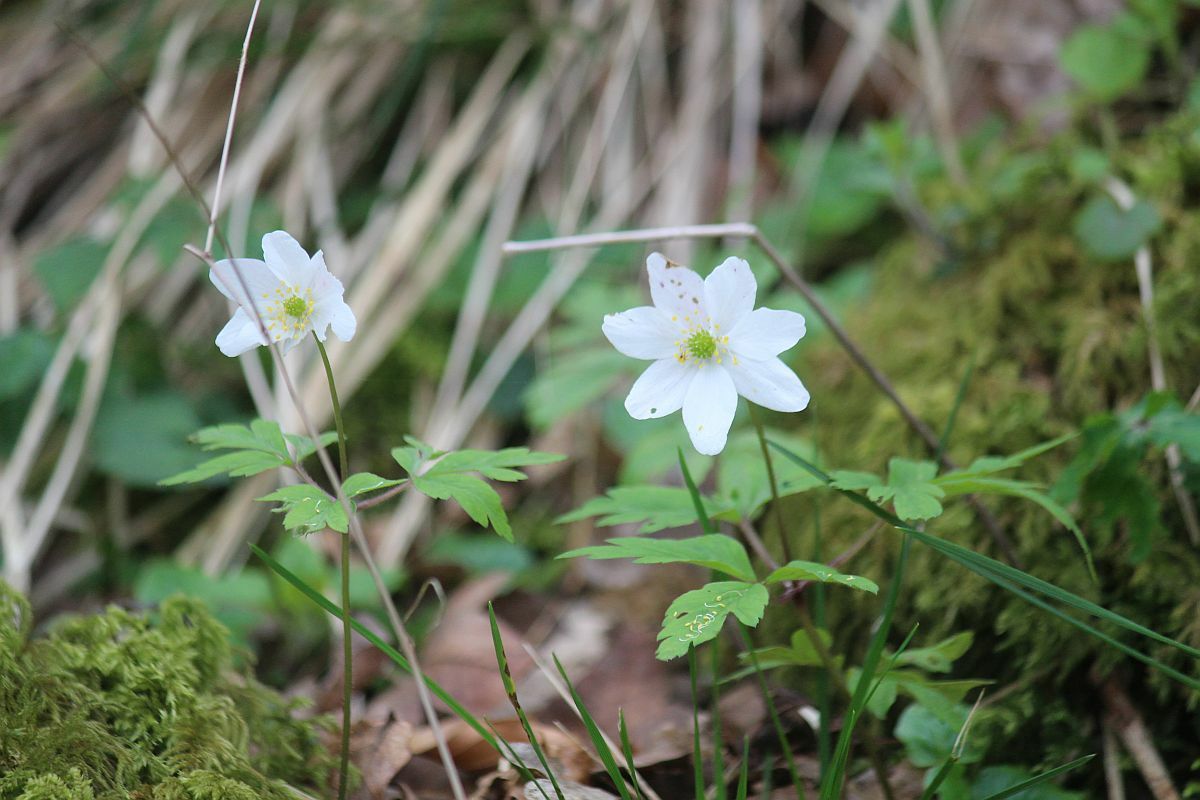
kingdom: Plantae
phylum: Tracheophyta
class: Magnoliopsida
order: Ranunculales
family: Ranunculaceae
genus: Anemone
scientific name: Anemone nemorosa
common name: Wood anemone
